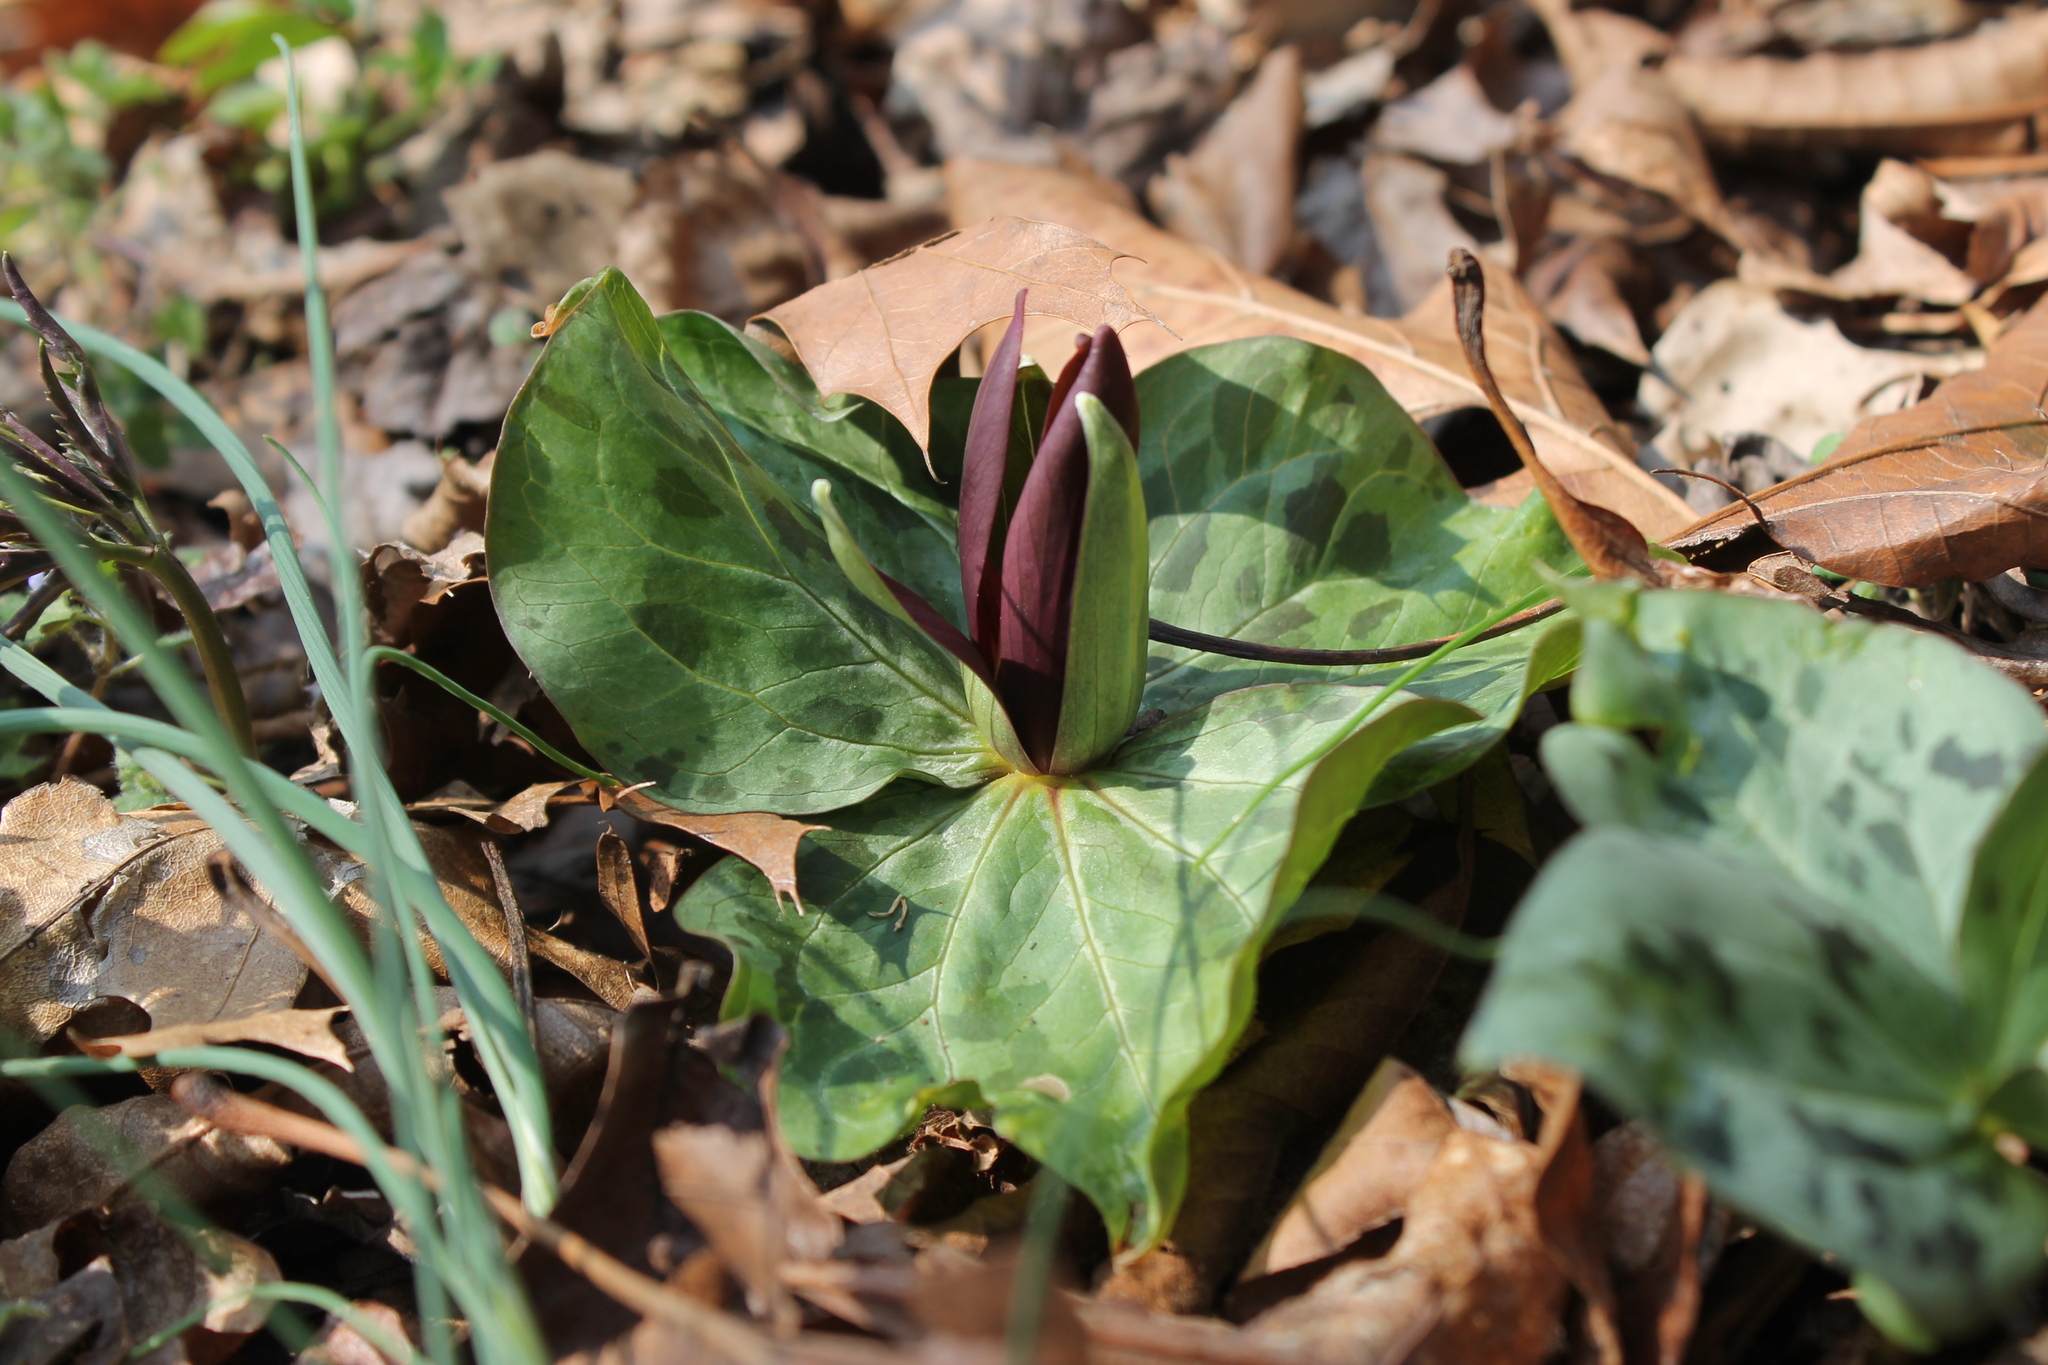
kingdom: Plantae
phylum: Tracheophyta
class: Liliopsida
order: Liliales
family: Melanthiaceae
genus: Trillium
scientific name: Trillium cuneatum
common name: Cuneate trillium
